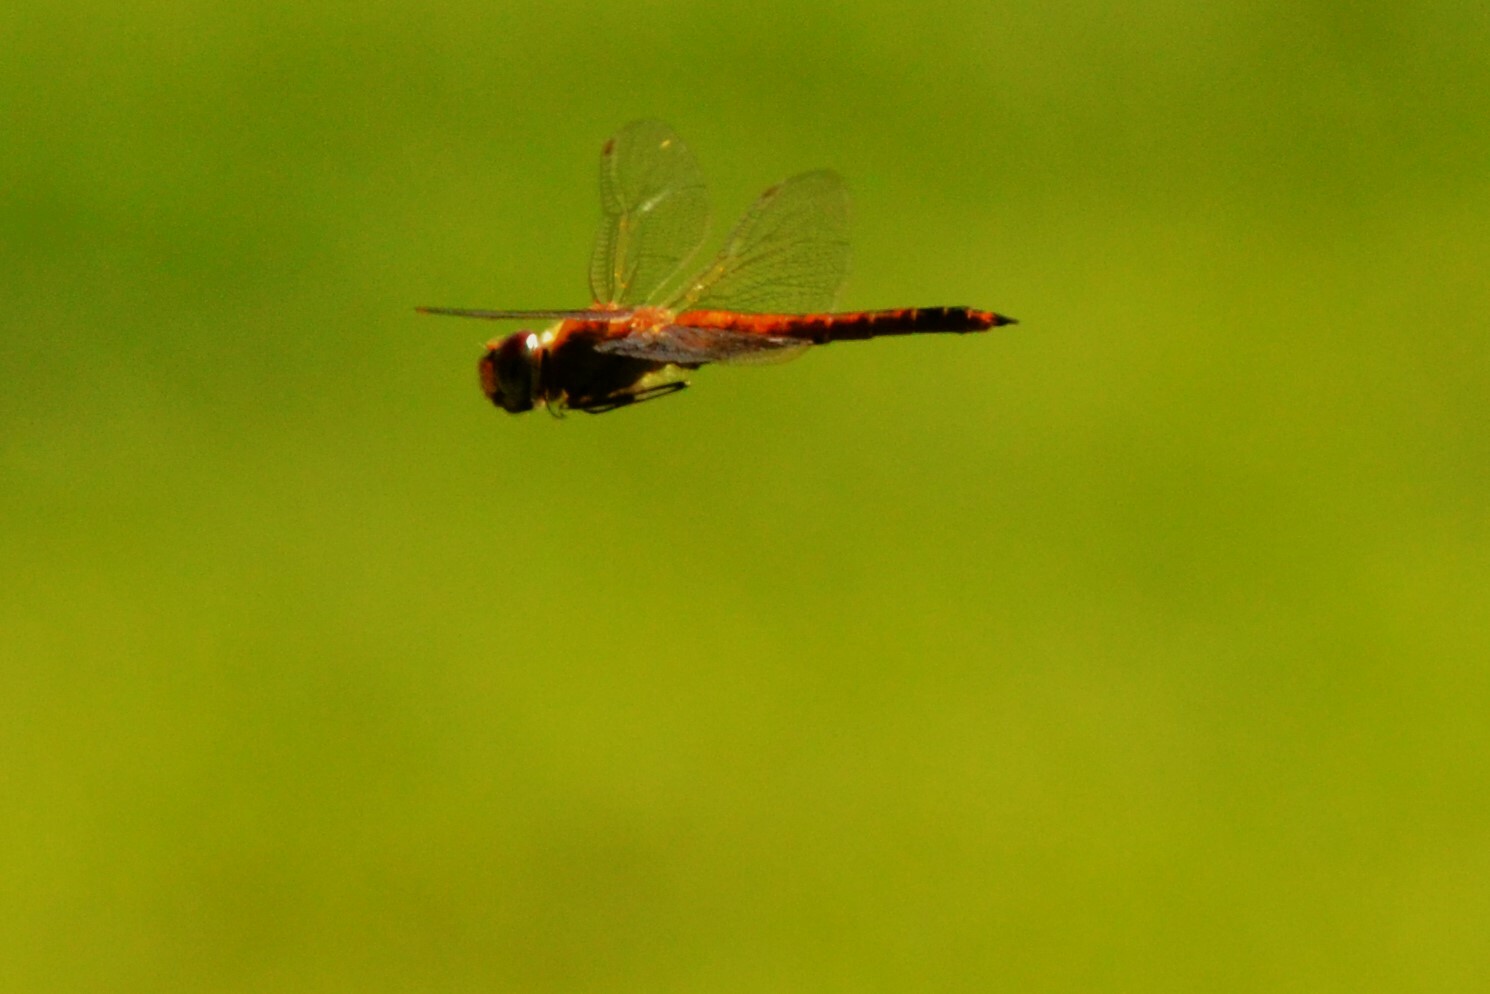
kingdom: Animalia
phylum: Arthropoda
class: Insecta
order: Odonata
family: Libellulidae
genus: Pantala
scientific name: Pantala flavescens
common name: Wandering glider
